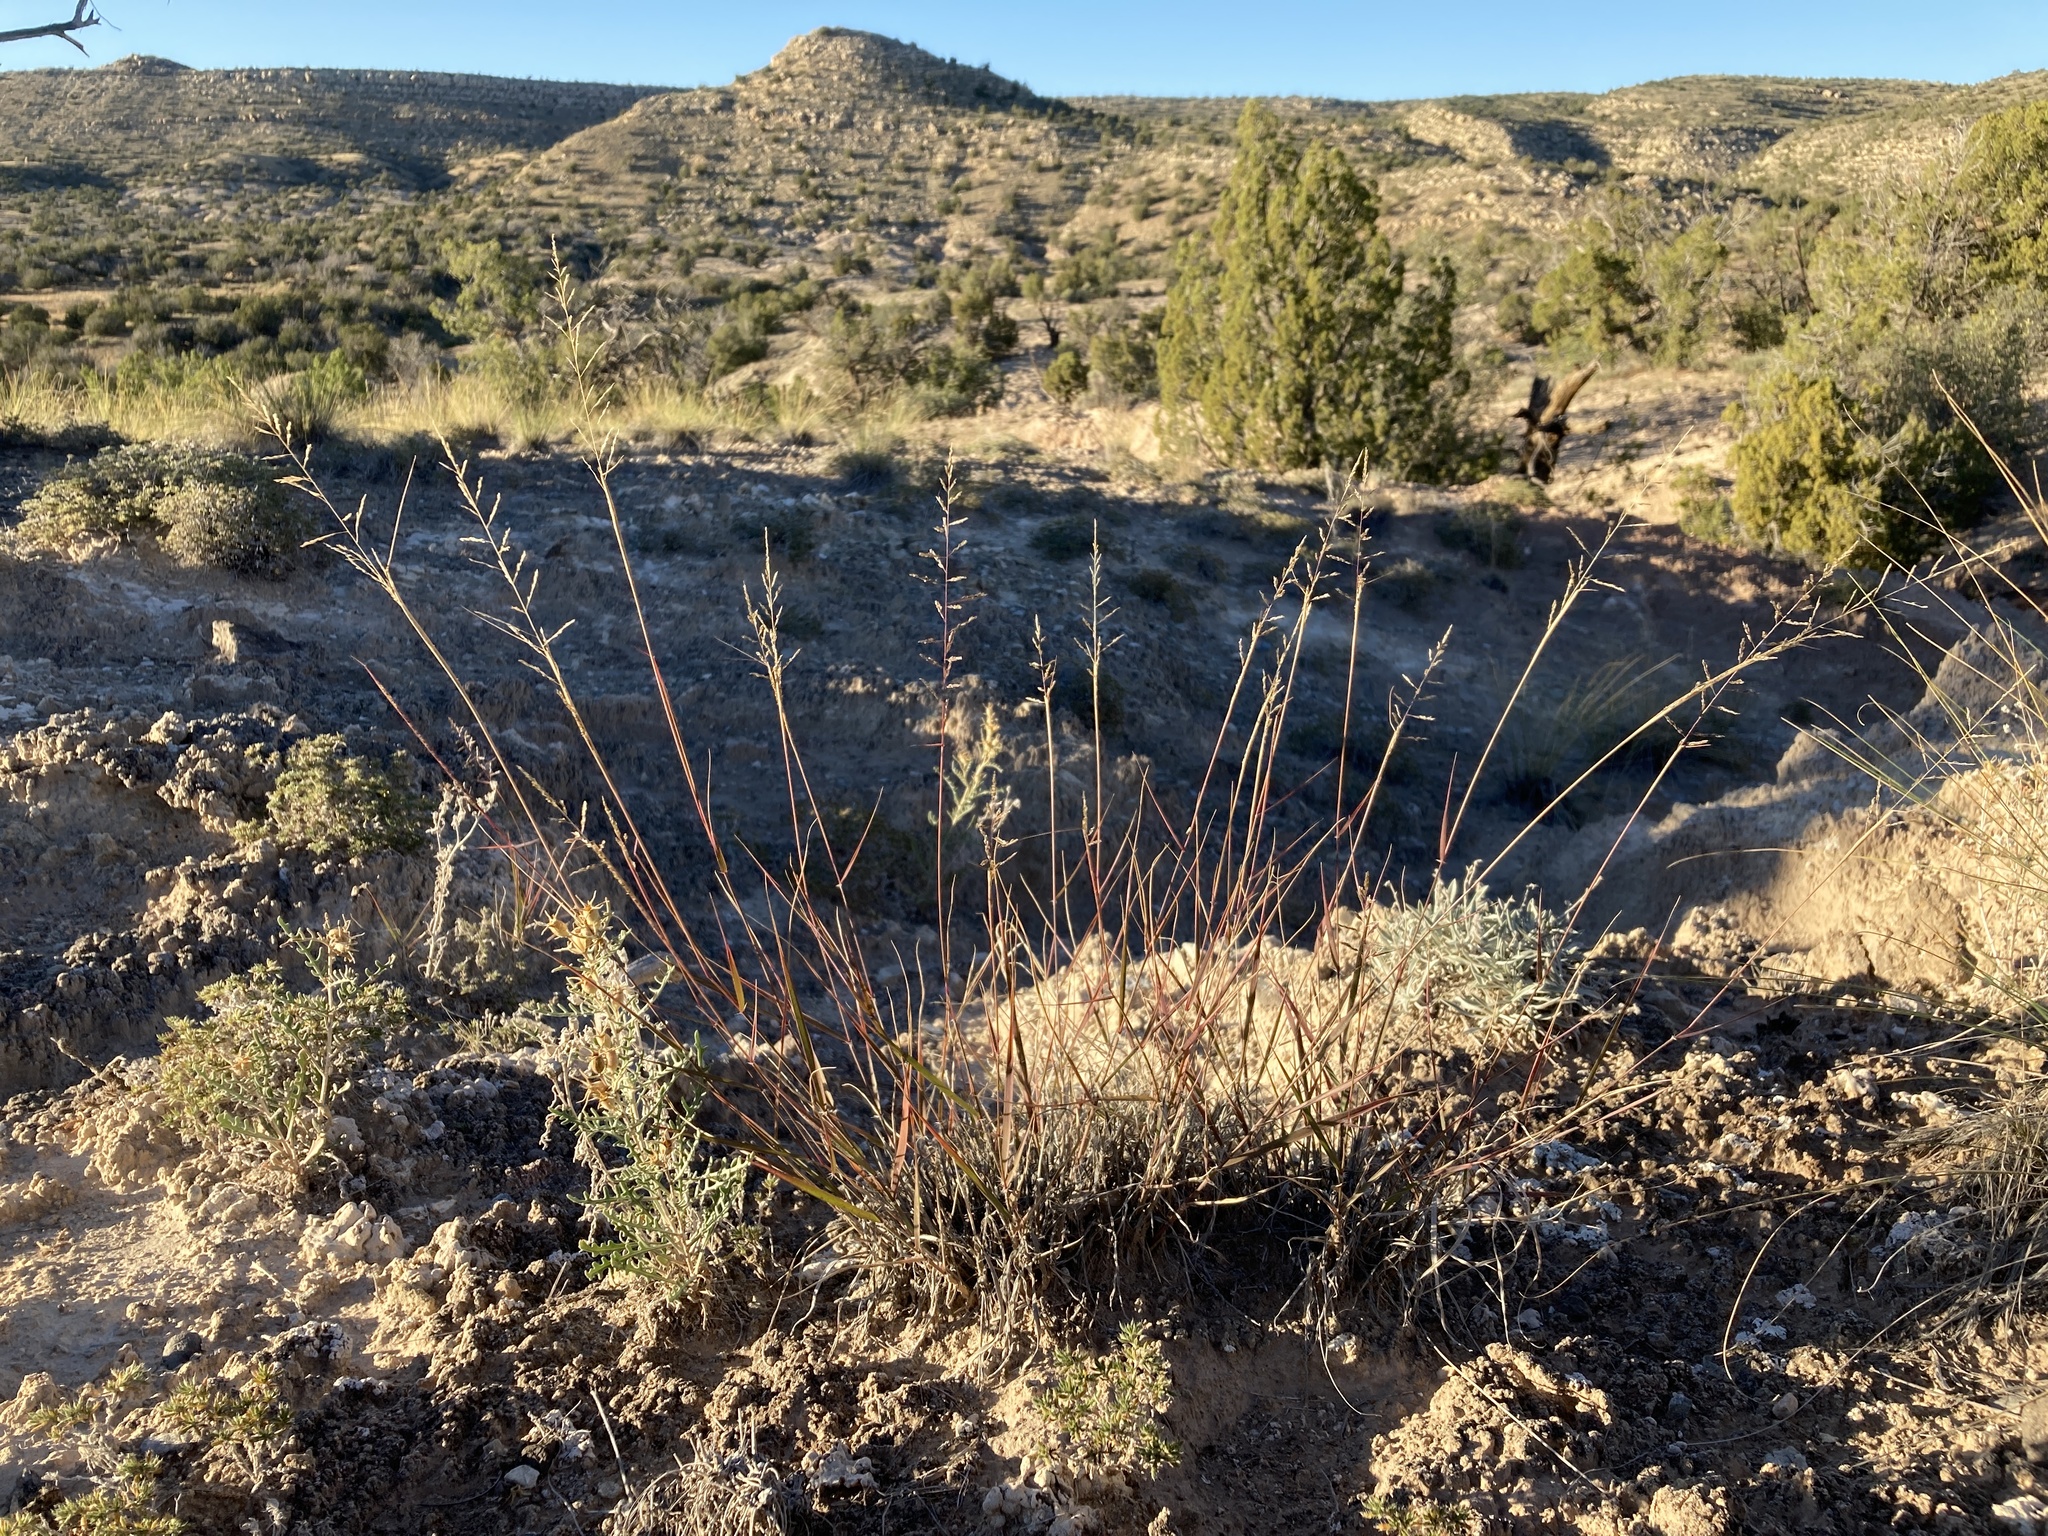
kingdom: Plantae
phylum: Tracheophyta
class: Liliopsida
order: Poales
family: Poaceae
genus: Sporobolus
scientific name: Sporobolus cryptandrus
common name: Sand dropseed
